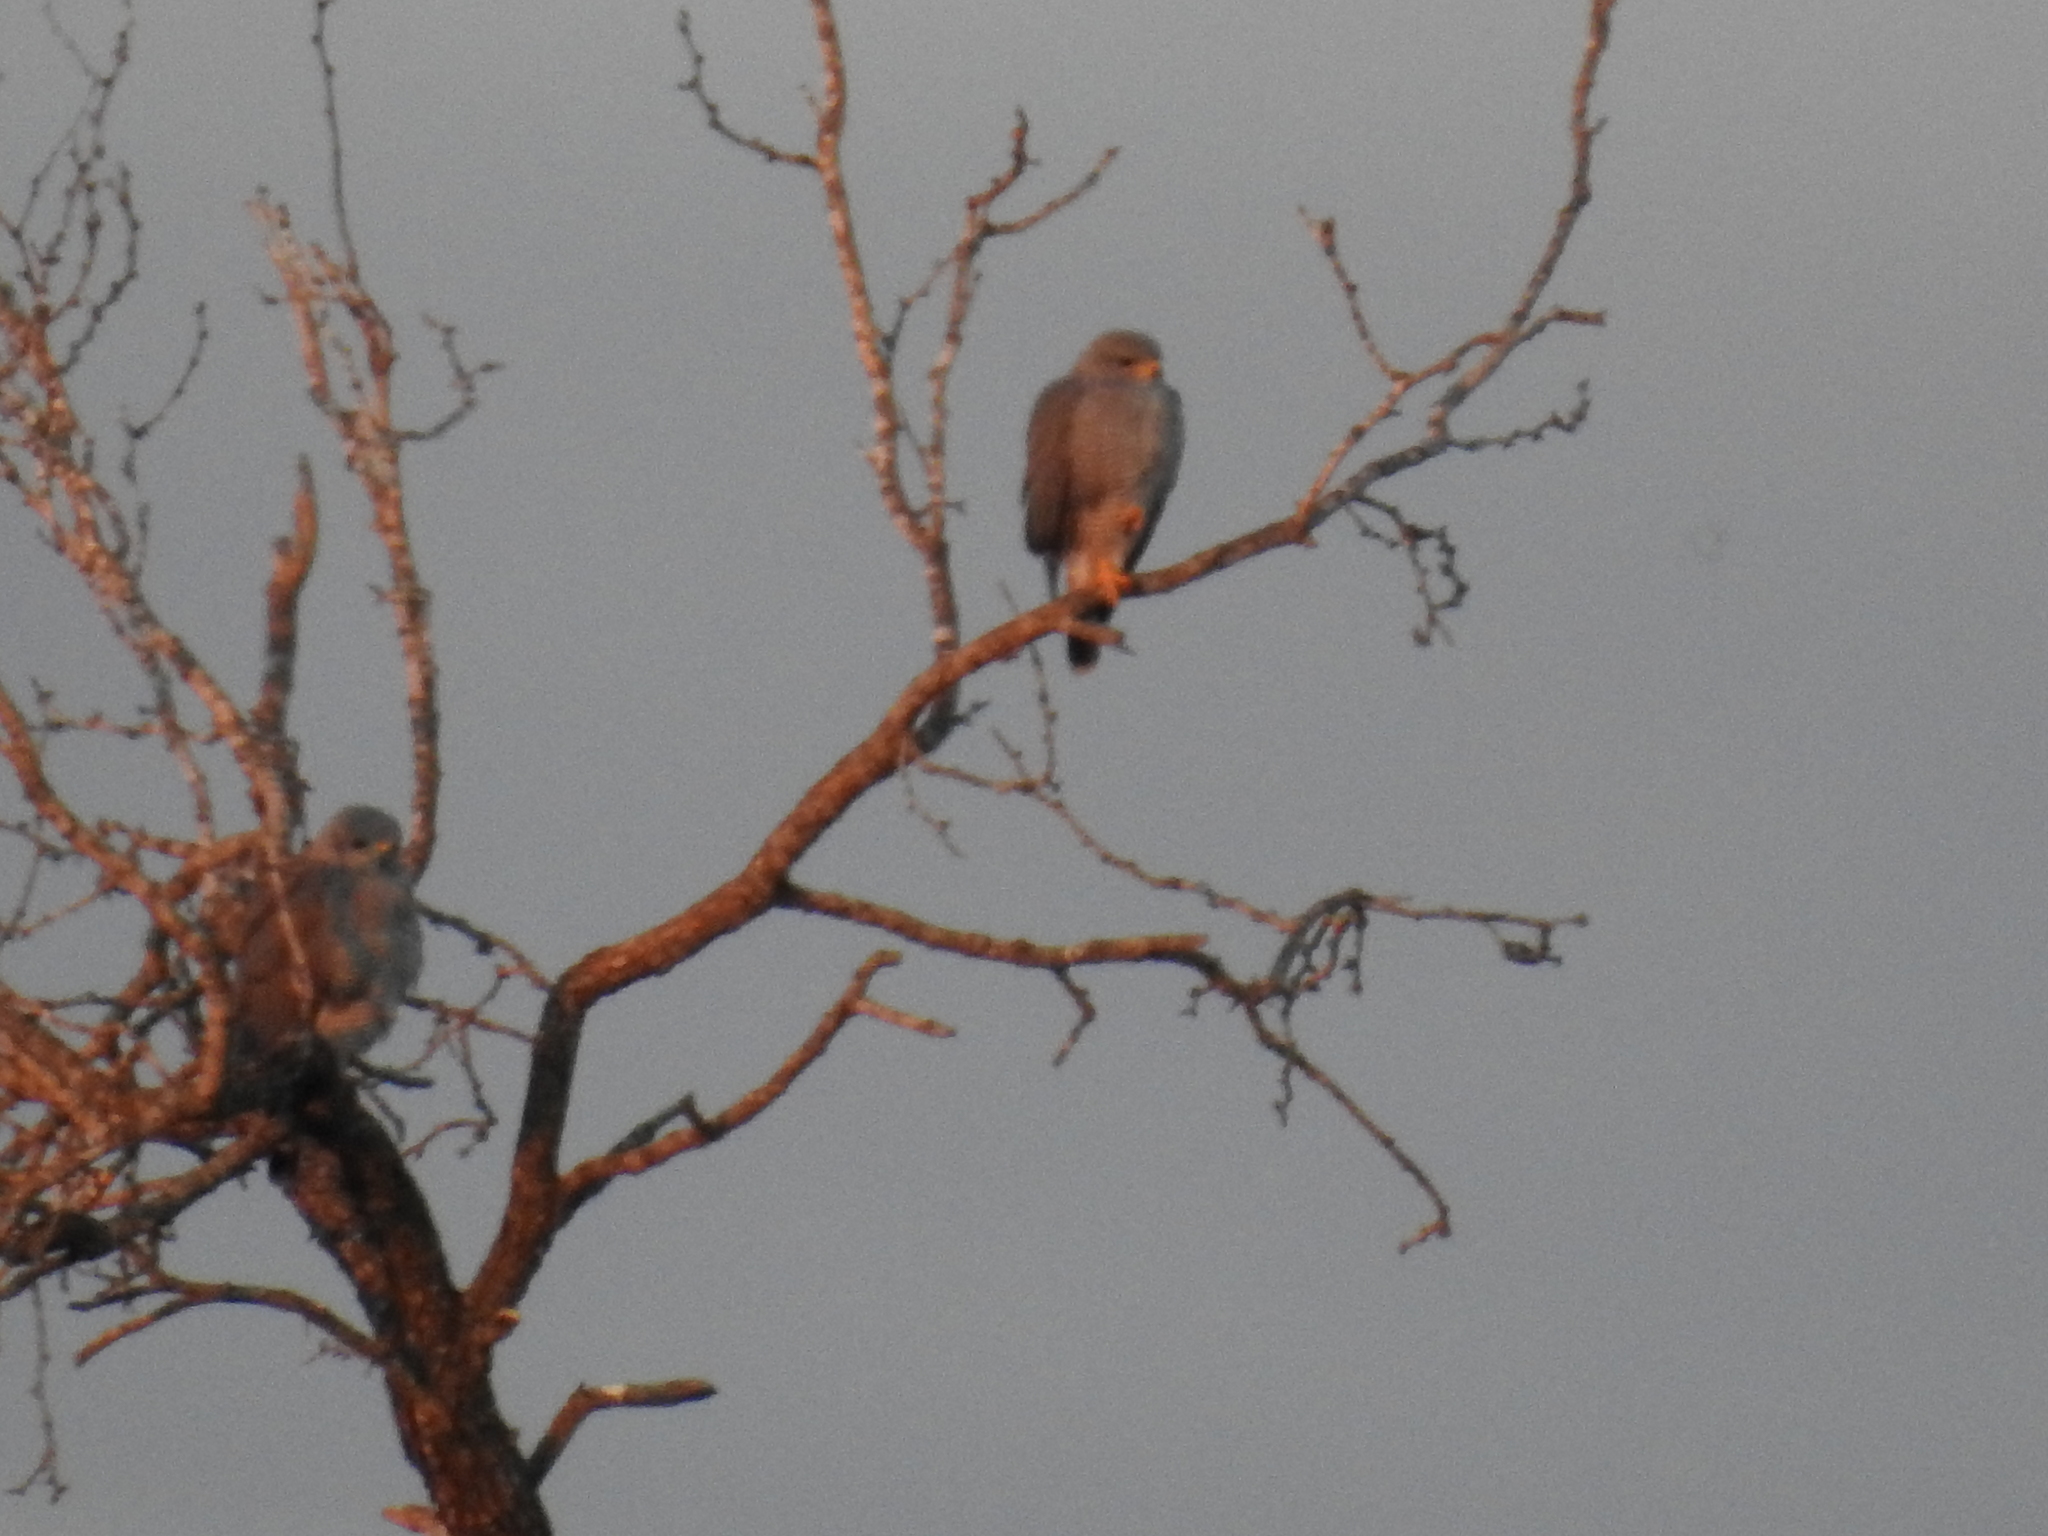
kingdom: Animalia
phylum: Chordata
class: Aves
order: Accipitriformes
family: Accipitridae
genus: Buteo
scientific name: Buteo nitidus
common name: Grey-lined hawk
